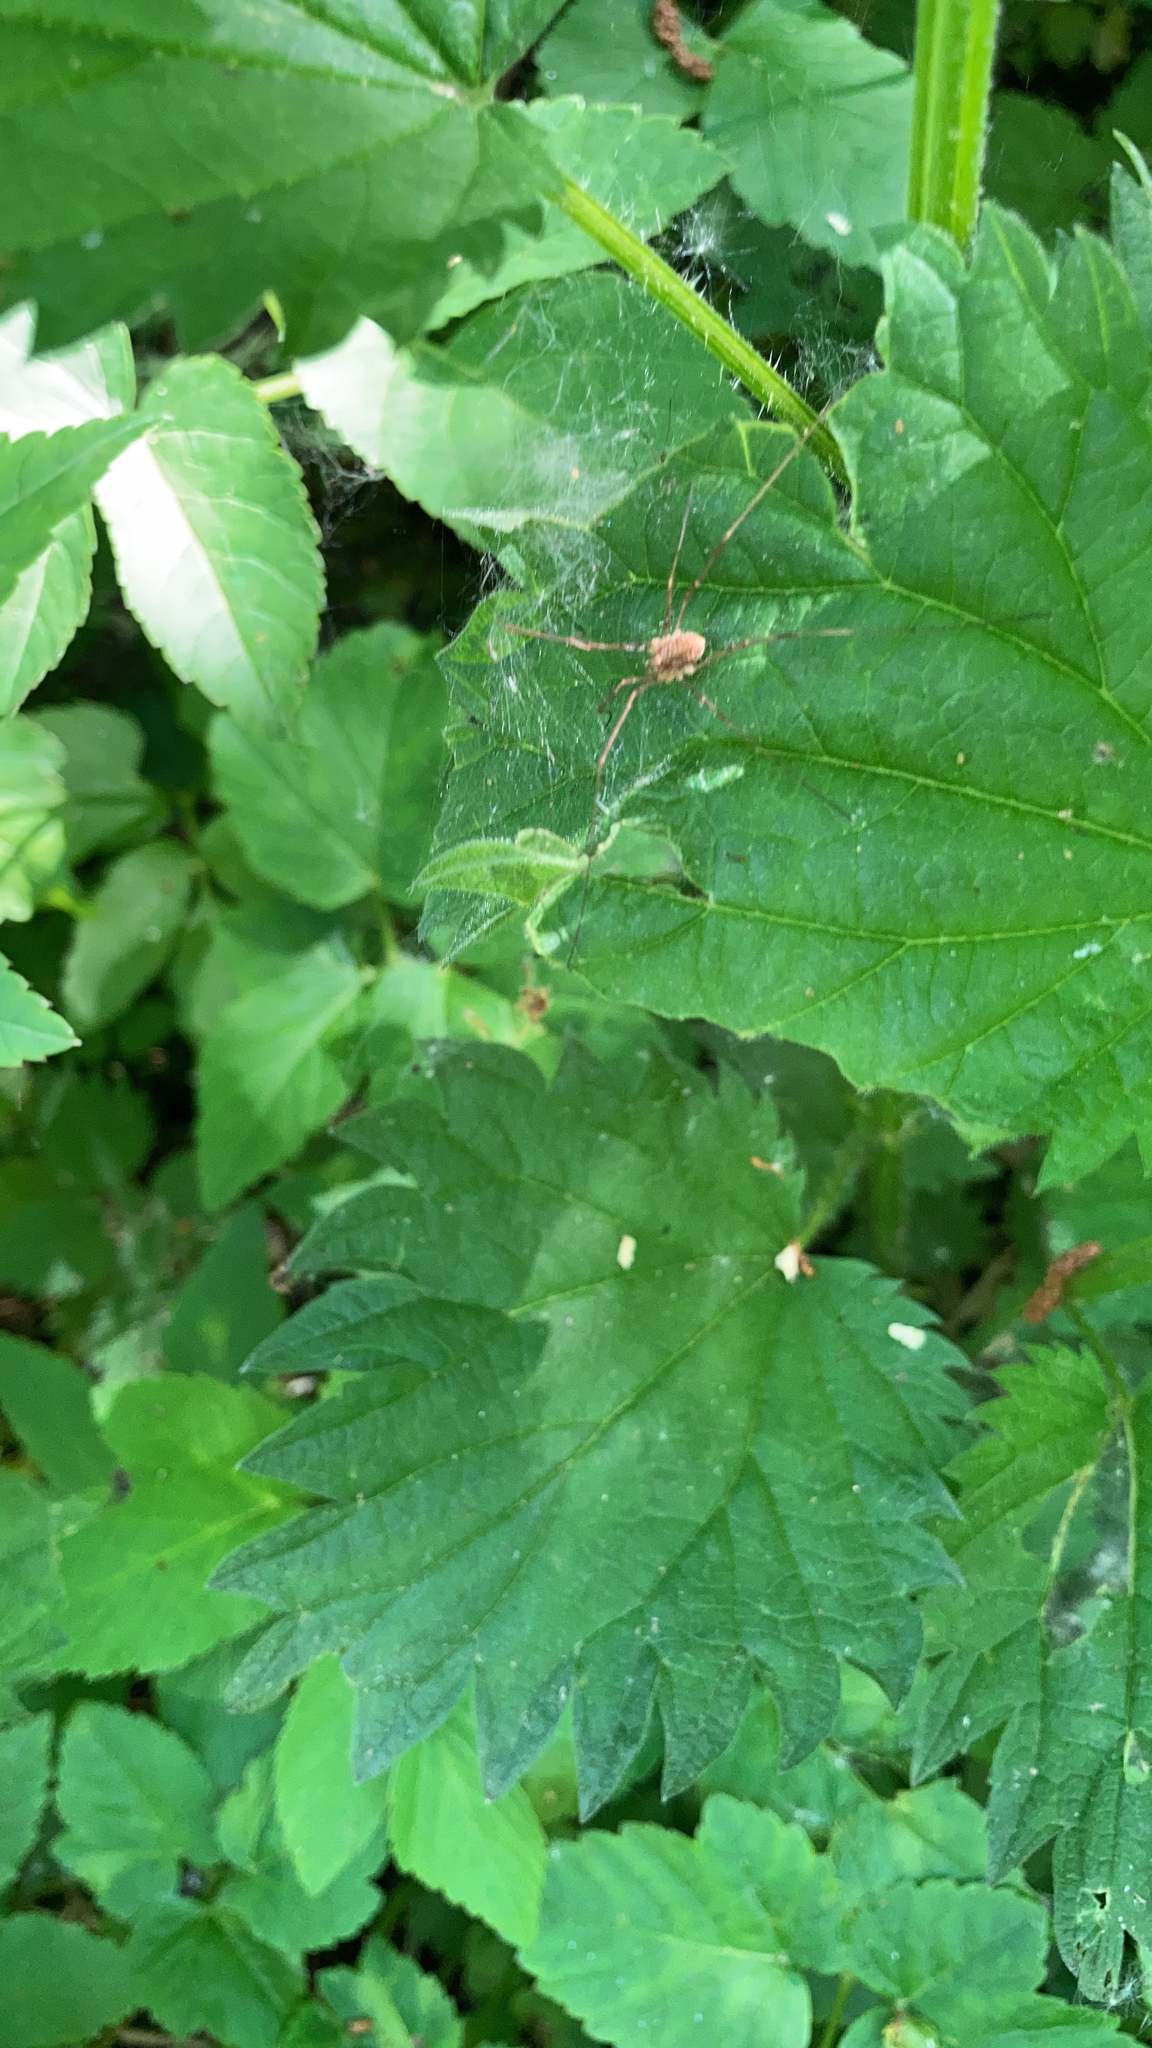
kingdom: Animalia
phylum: Arthropoda
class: Arachnida
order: Opiliones
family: Phalangiidae
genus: Rilaena
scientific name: Rilaena triangularis
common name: Spring harvestman
